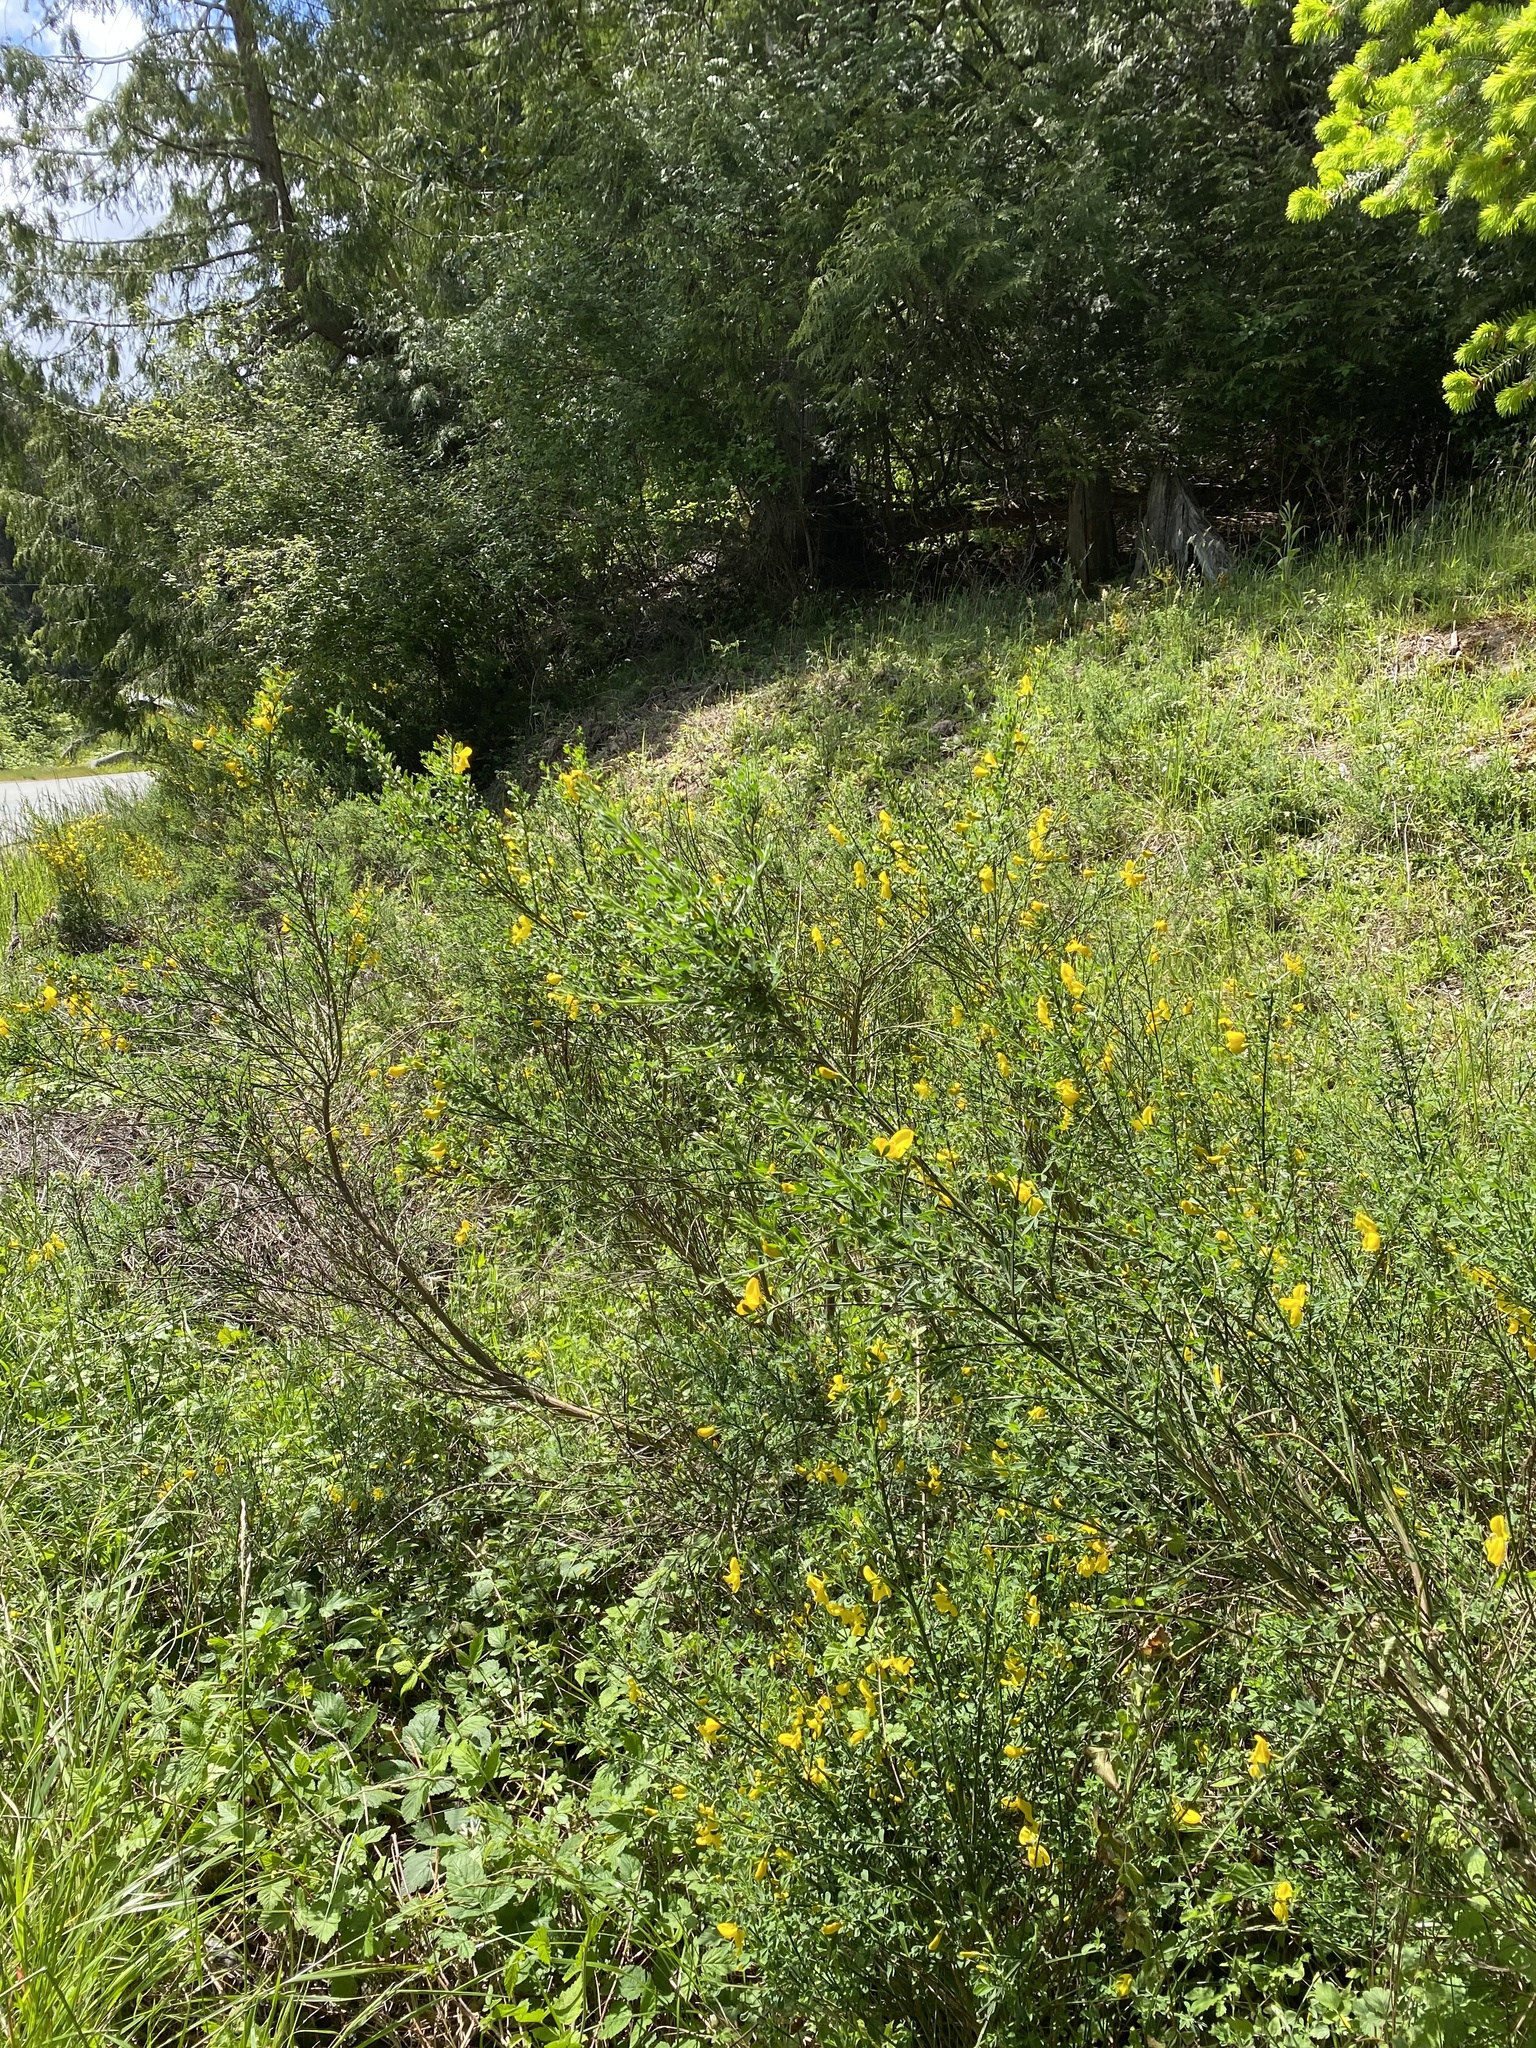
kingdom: Plantae
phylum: Tracheophyta
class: Magnoliopsida
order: Fabales
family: Fabaceae
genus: Cytisus
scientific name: Cytisus scoparius
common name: Scotch broom
